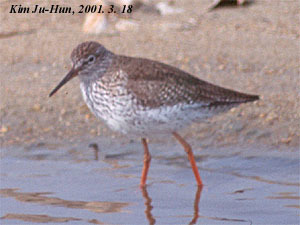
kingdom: Animalia
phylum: Chordata
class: Aves
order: Charadriiformes
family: Scolopacidae
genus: Tringa
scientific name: Tringa totanus
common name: Common redshank
